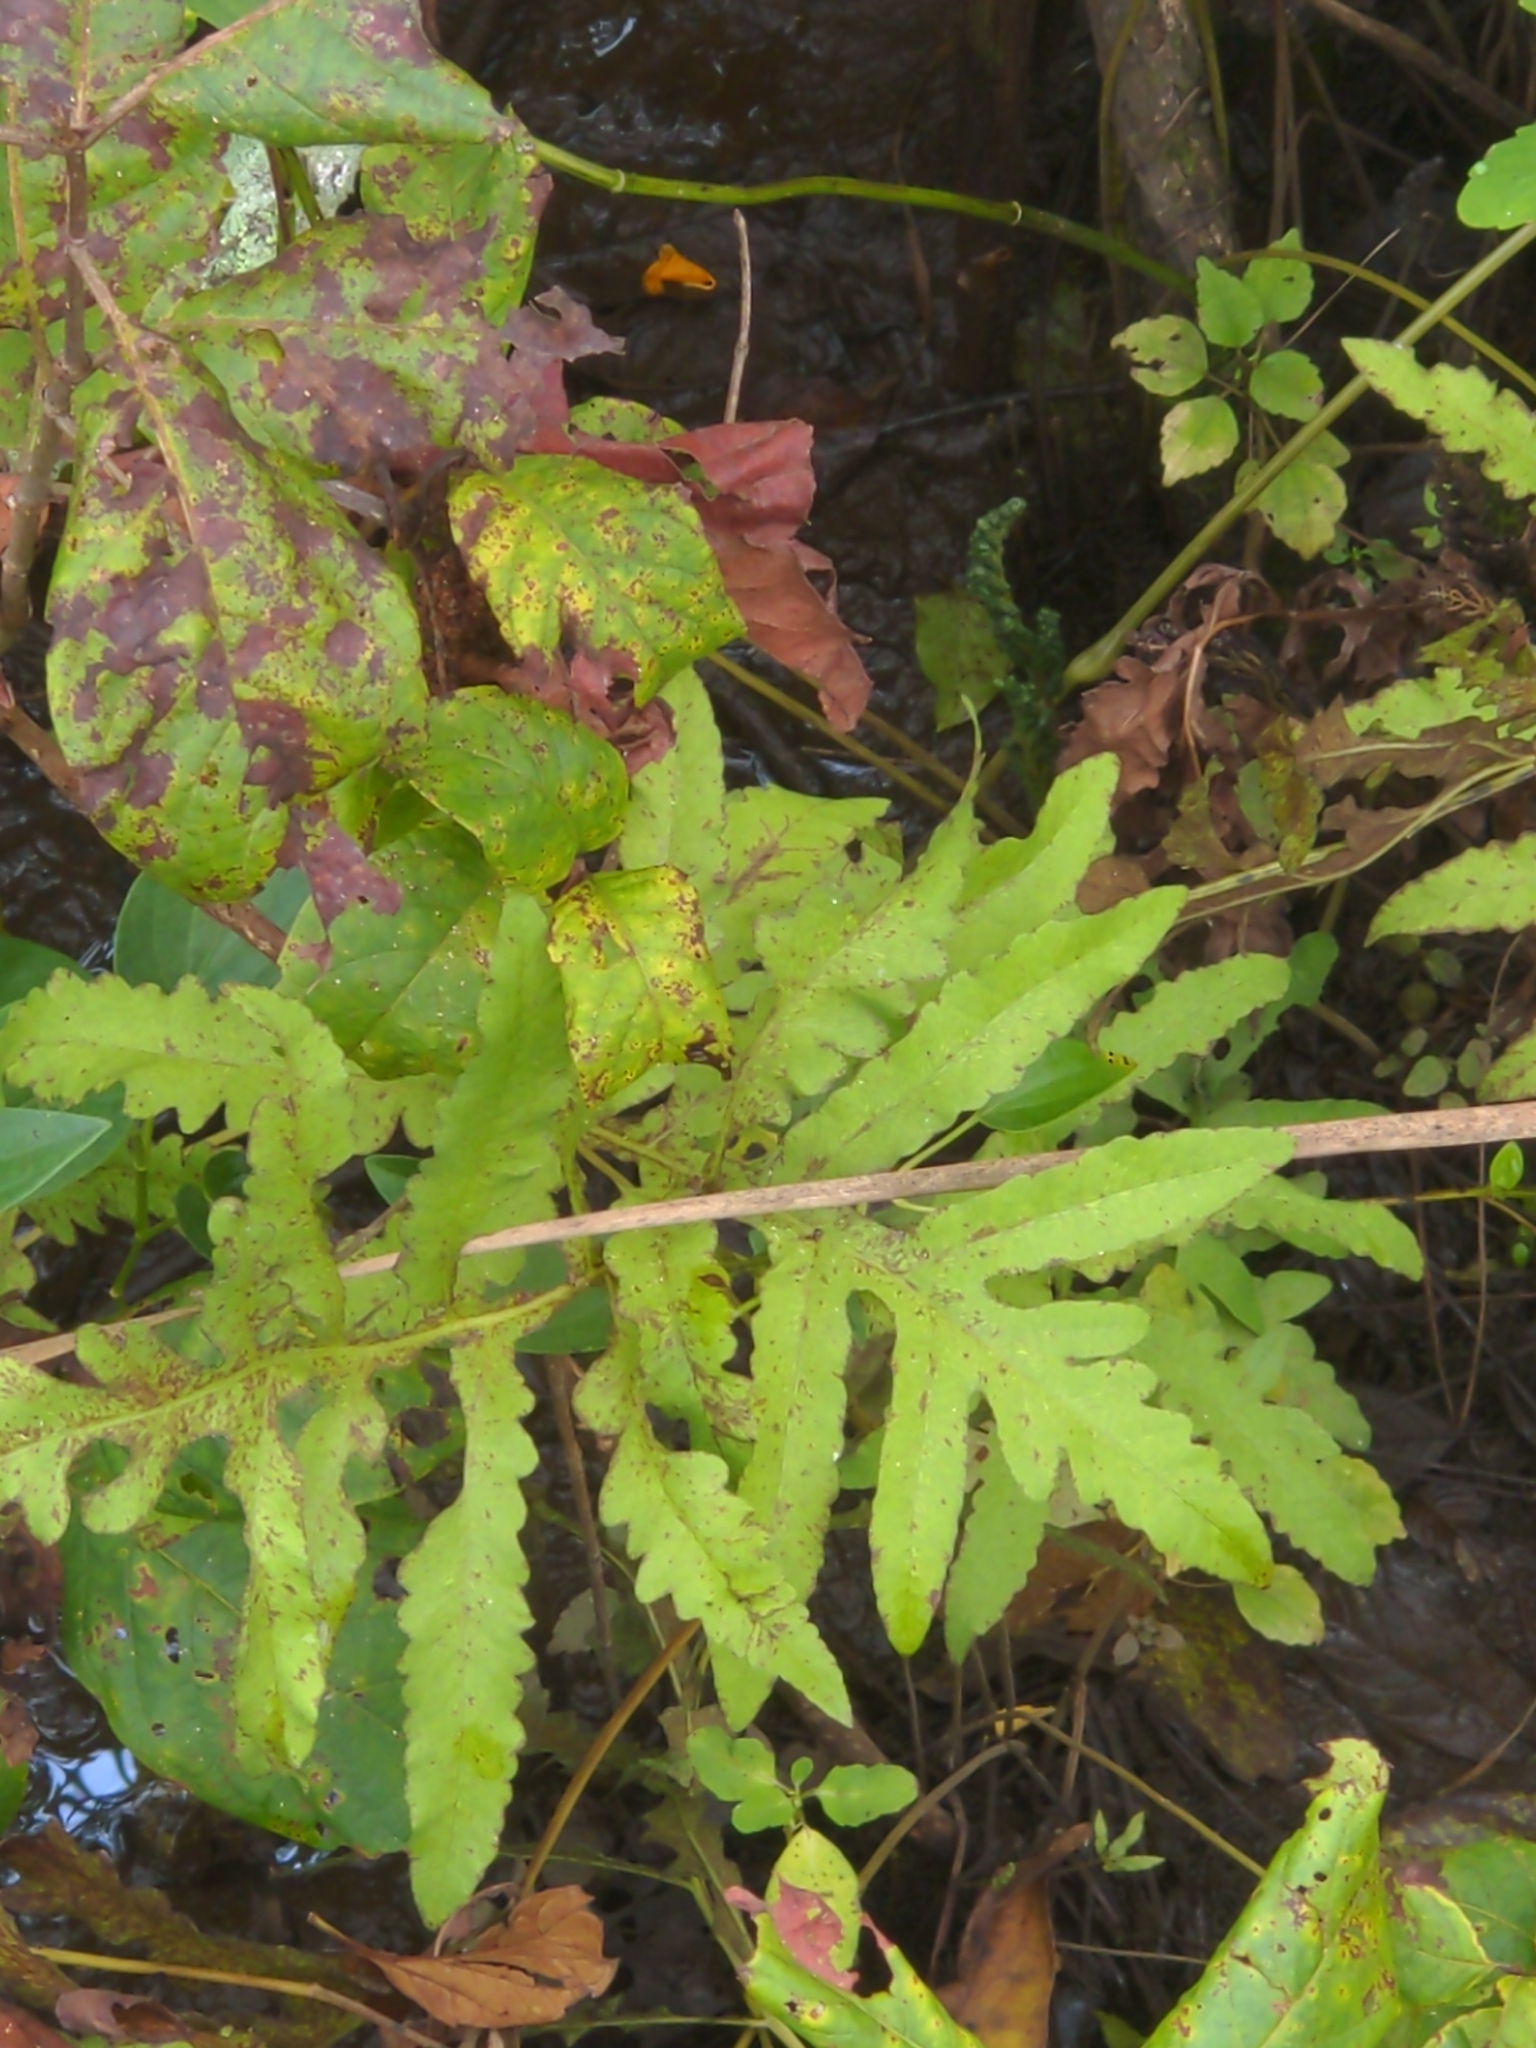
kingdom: Plantae
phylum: Tracheophyta
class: Polypodiopsida
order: Polypodiales
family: Onocleaceae
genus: Onoclea
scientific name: Onoclea sensibilis
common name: Sensitive fern
